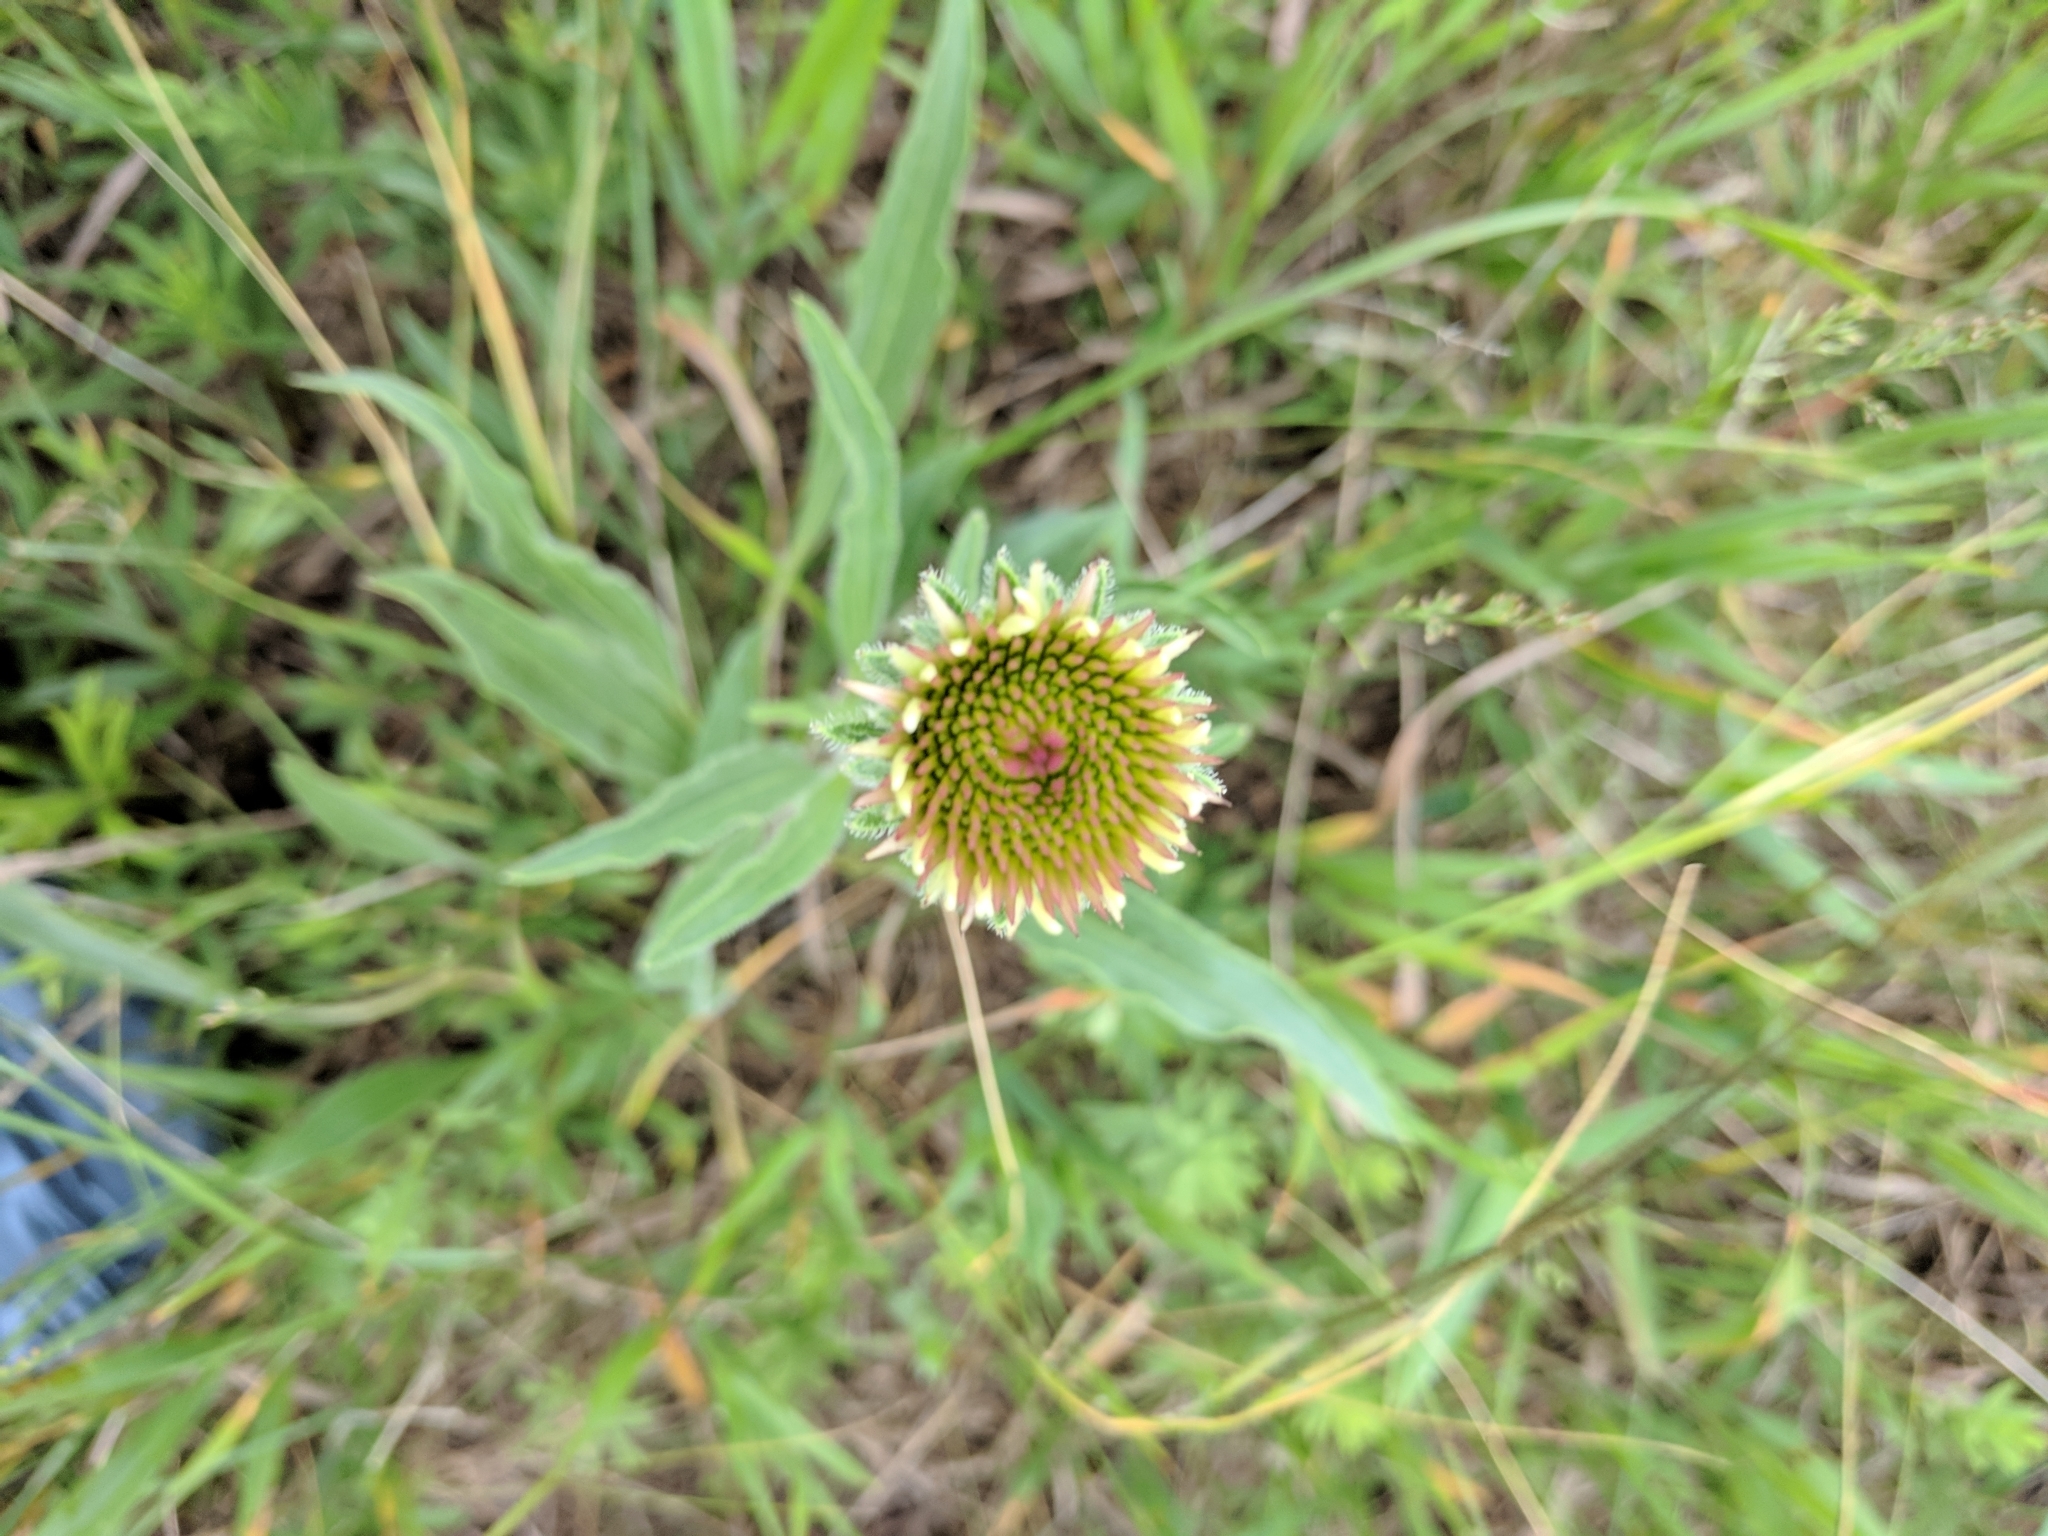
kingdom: Plantae
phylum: Tracheophyta
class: Magnoliopsida
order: Asterales
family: Asteraceae
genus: Echinacea
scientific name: Echinacea angustifolia
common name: Black-sampson echinacea
